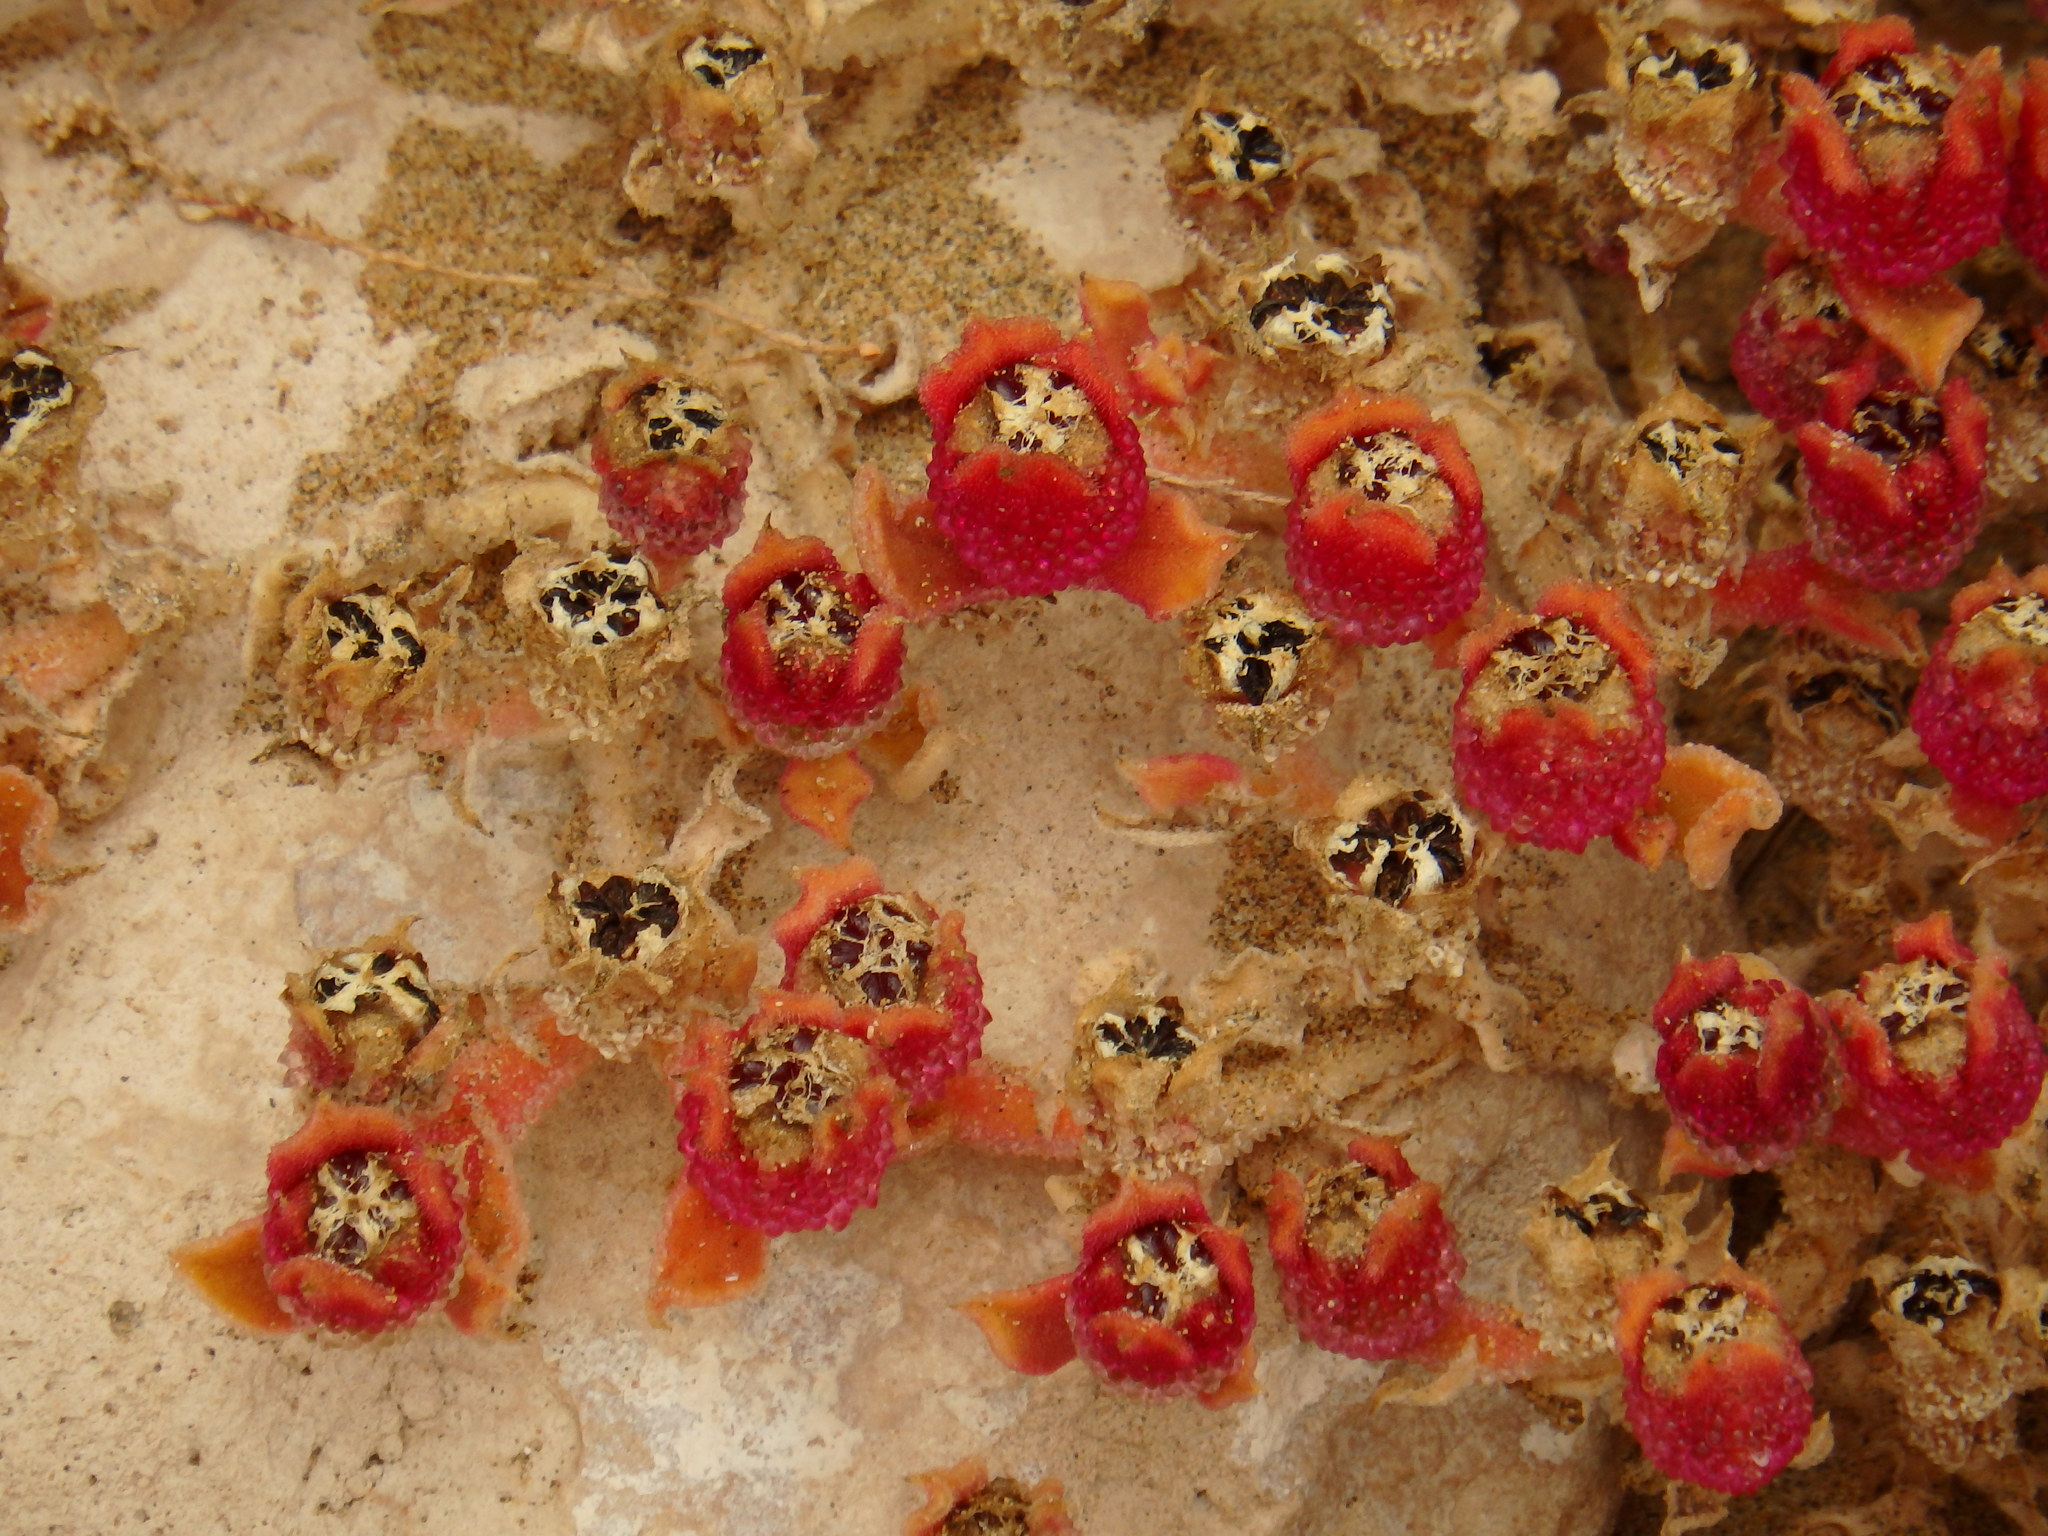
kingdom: Plantae
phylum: Tracheophyta
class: Magnoliopsida
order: Caryophyllales
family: Aizoaceae
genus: Mesembryanthemum
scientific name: Mesembryanthemum crystallinum
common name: Common iceplant
